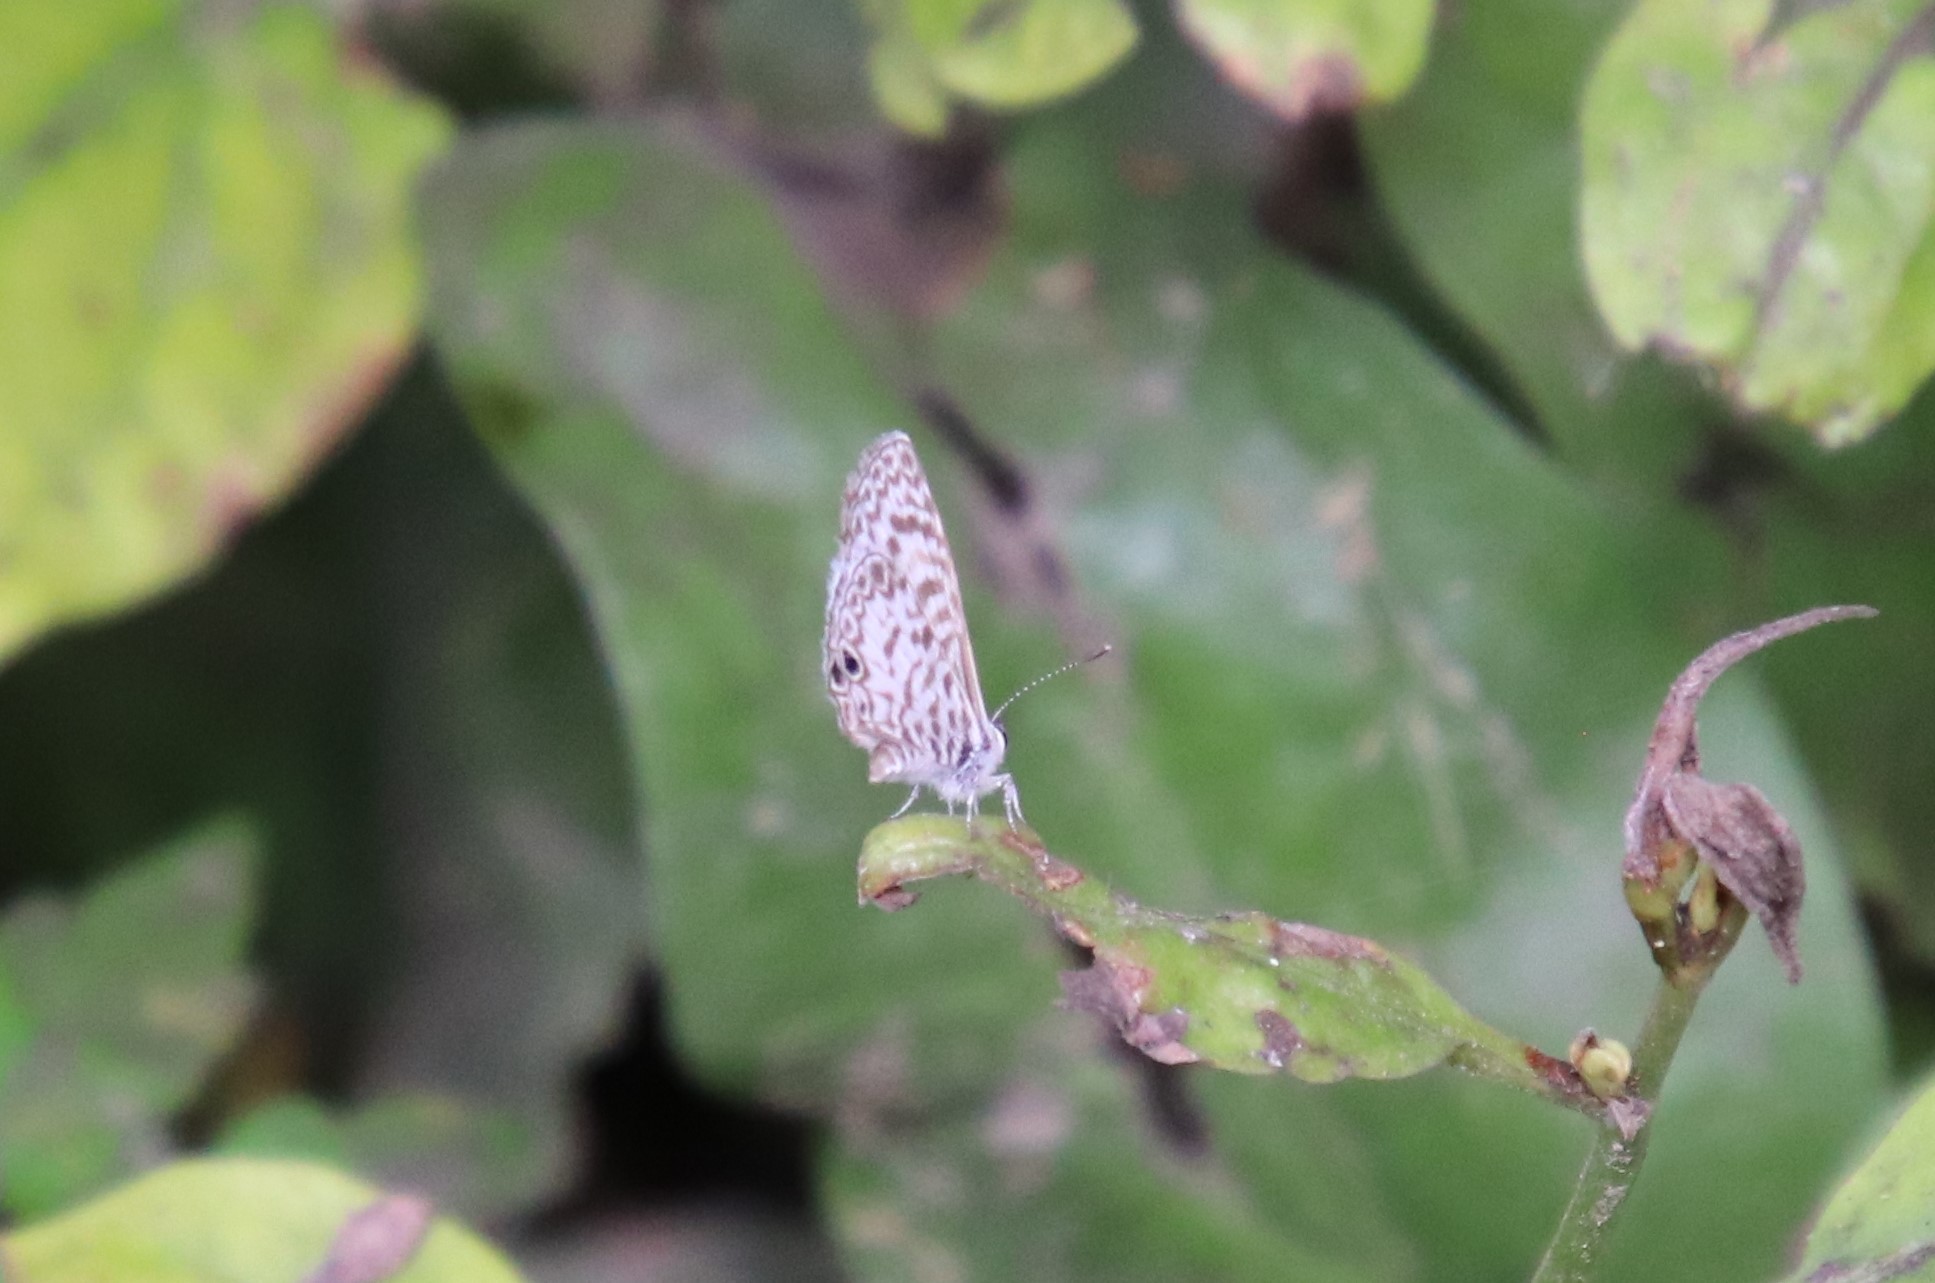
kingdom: Animalia
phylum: Arthropoda
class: Insecta
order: Lepidoptera
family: Lycaenidae
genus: Leptotes
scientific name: Leptotes cassius
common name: Cassius blue
